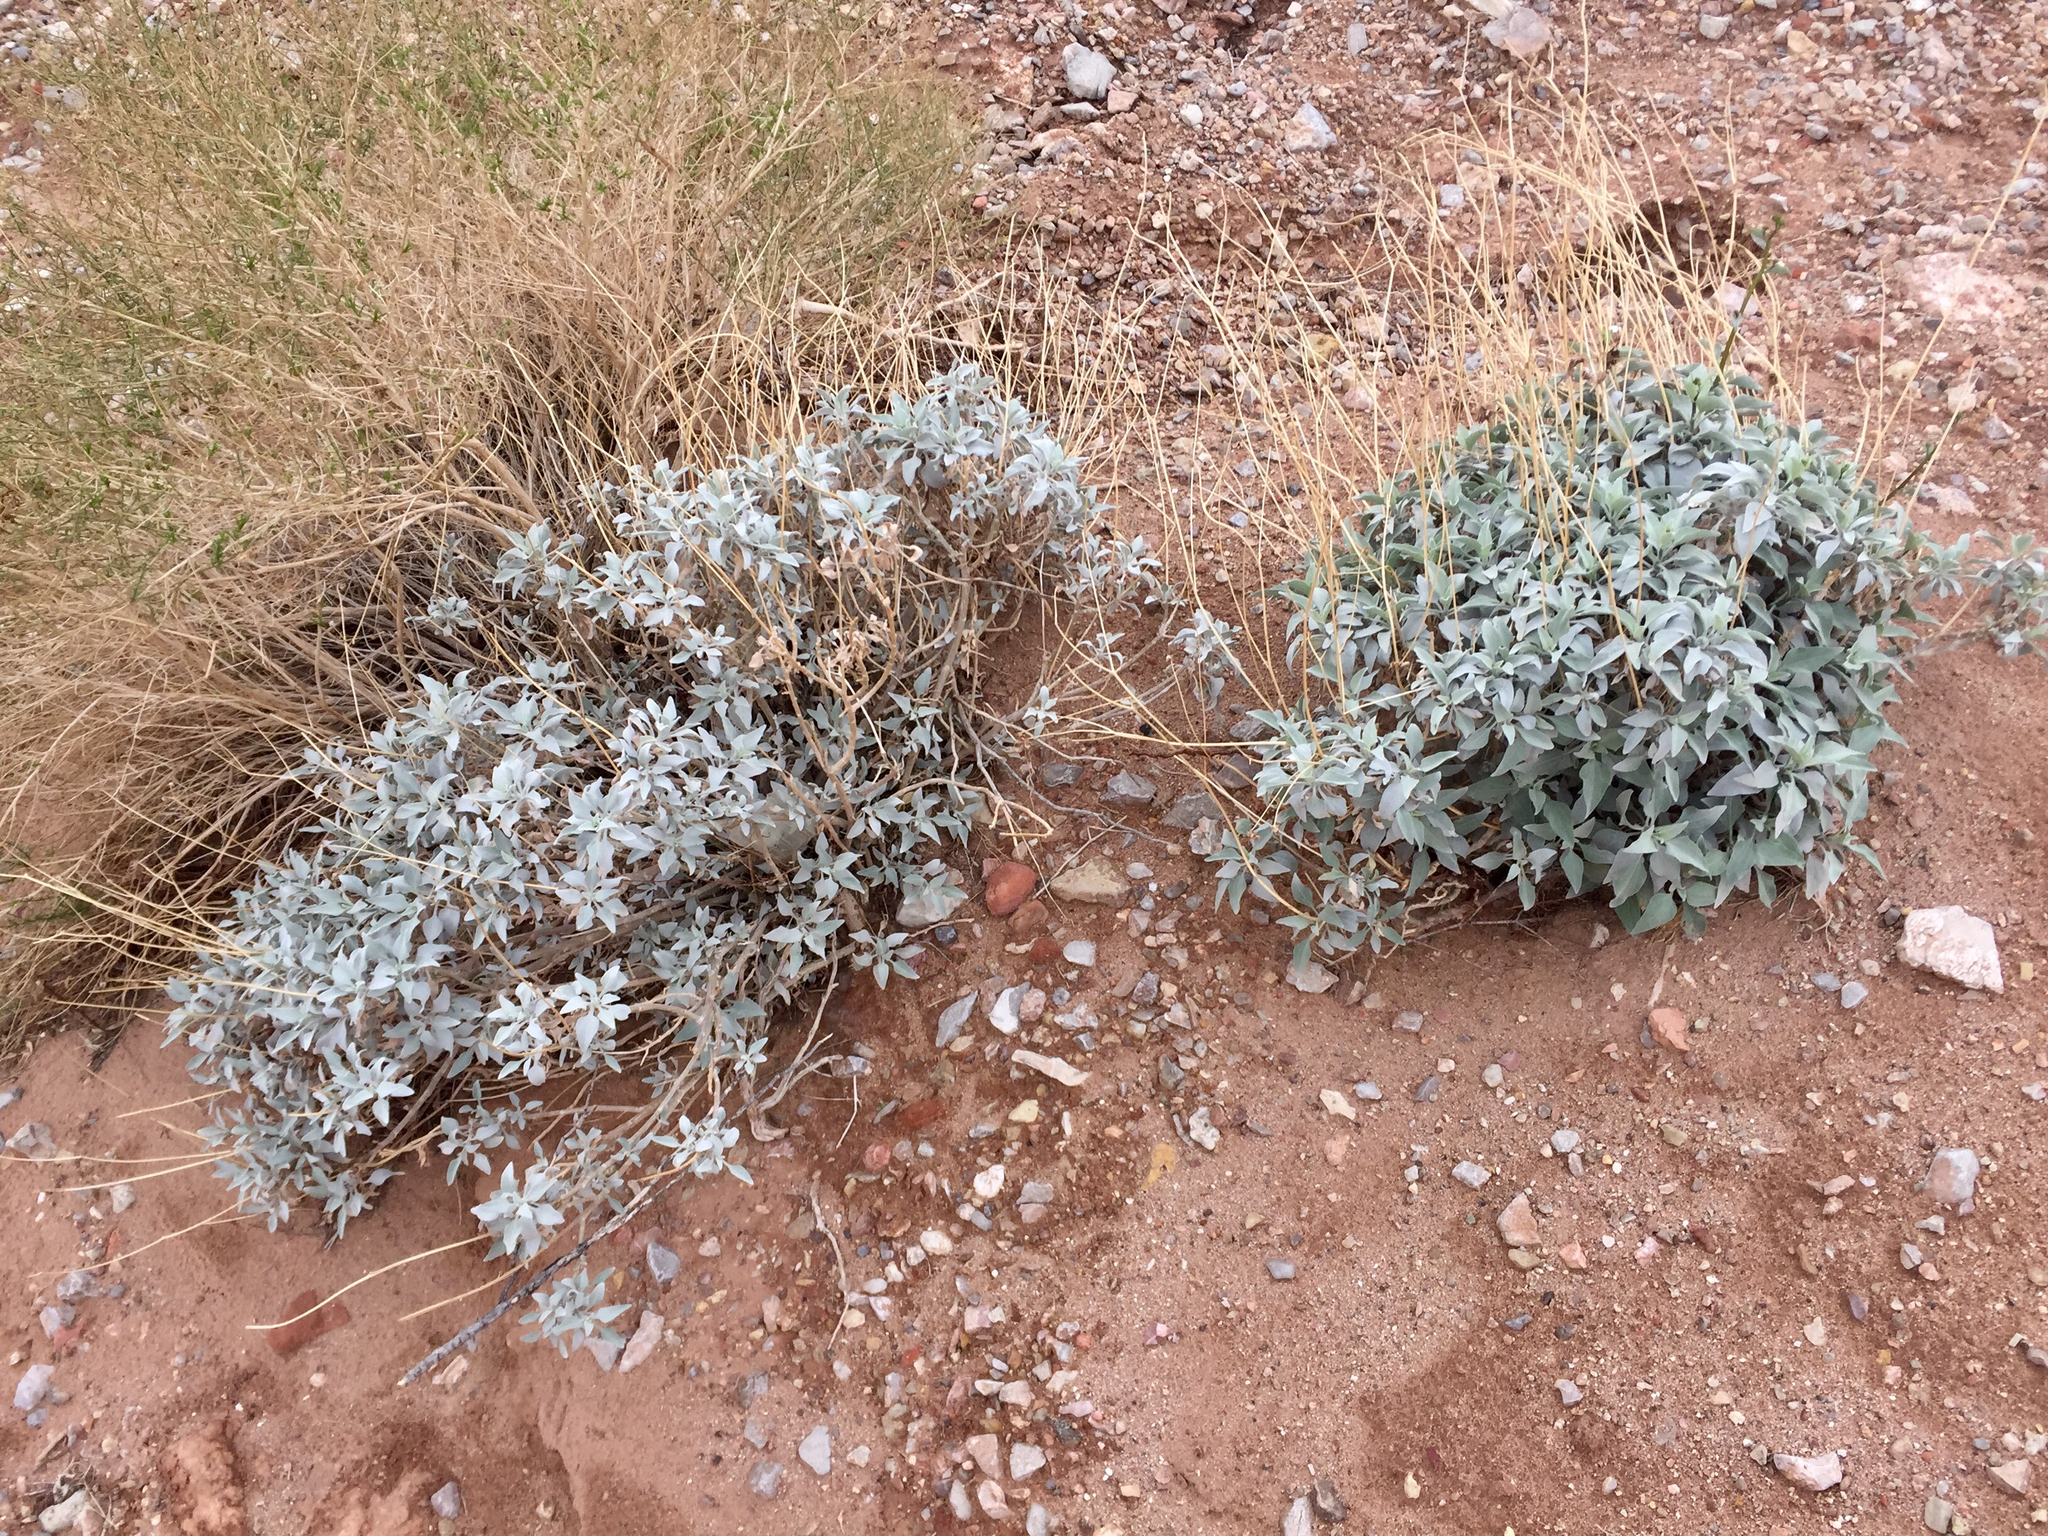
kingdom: Plantae
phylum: Tracheophyta
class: Magnoliopsida
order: Asterales
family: Asteraceae
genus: Encelia
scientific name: Encelia farinosa
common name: Brittlebush
